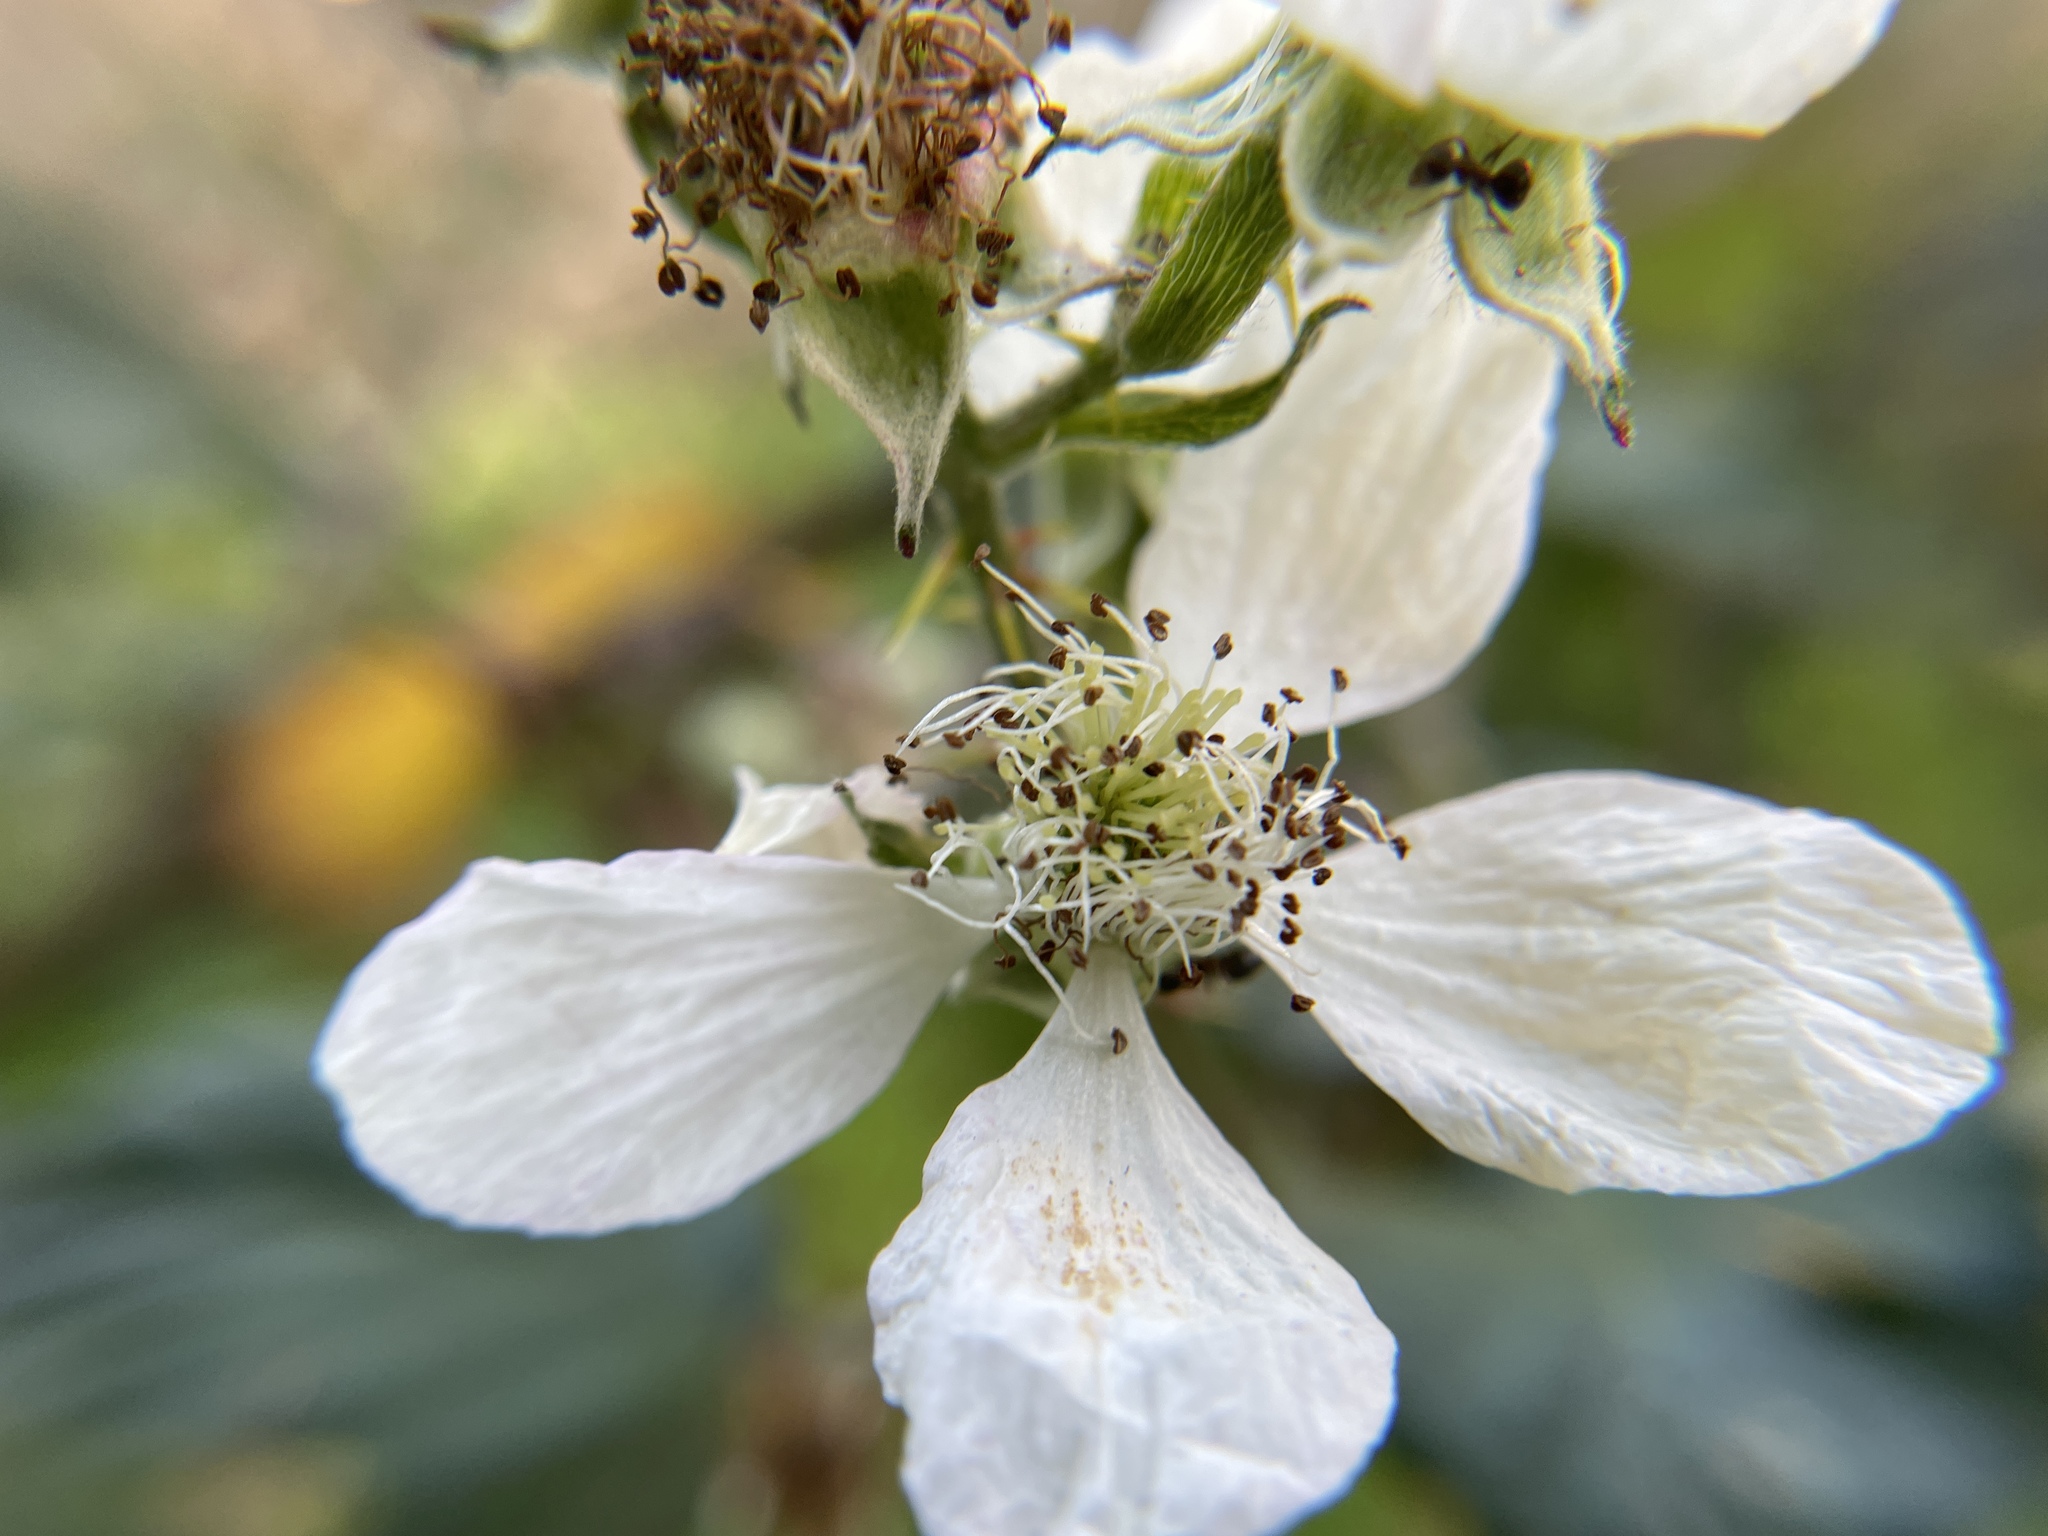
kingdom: Plantae
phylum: Tracheophyta
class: Magnoliopsida
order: Rosales
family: Rosaceae
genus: Rubus
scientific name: Rubus armeniacus
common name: Himalayan blackberry
